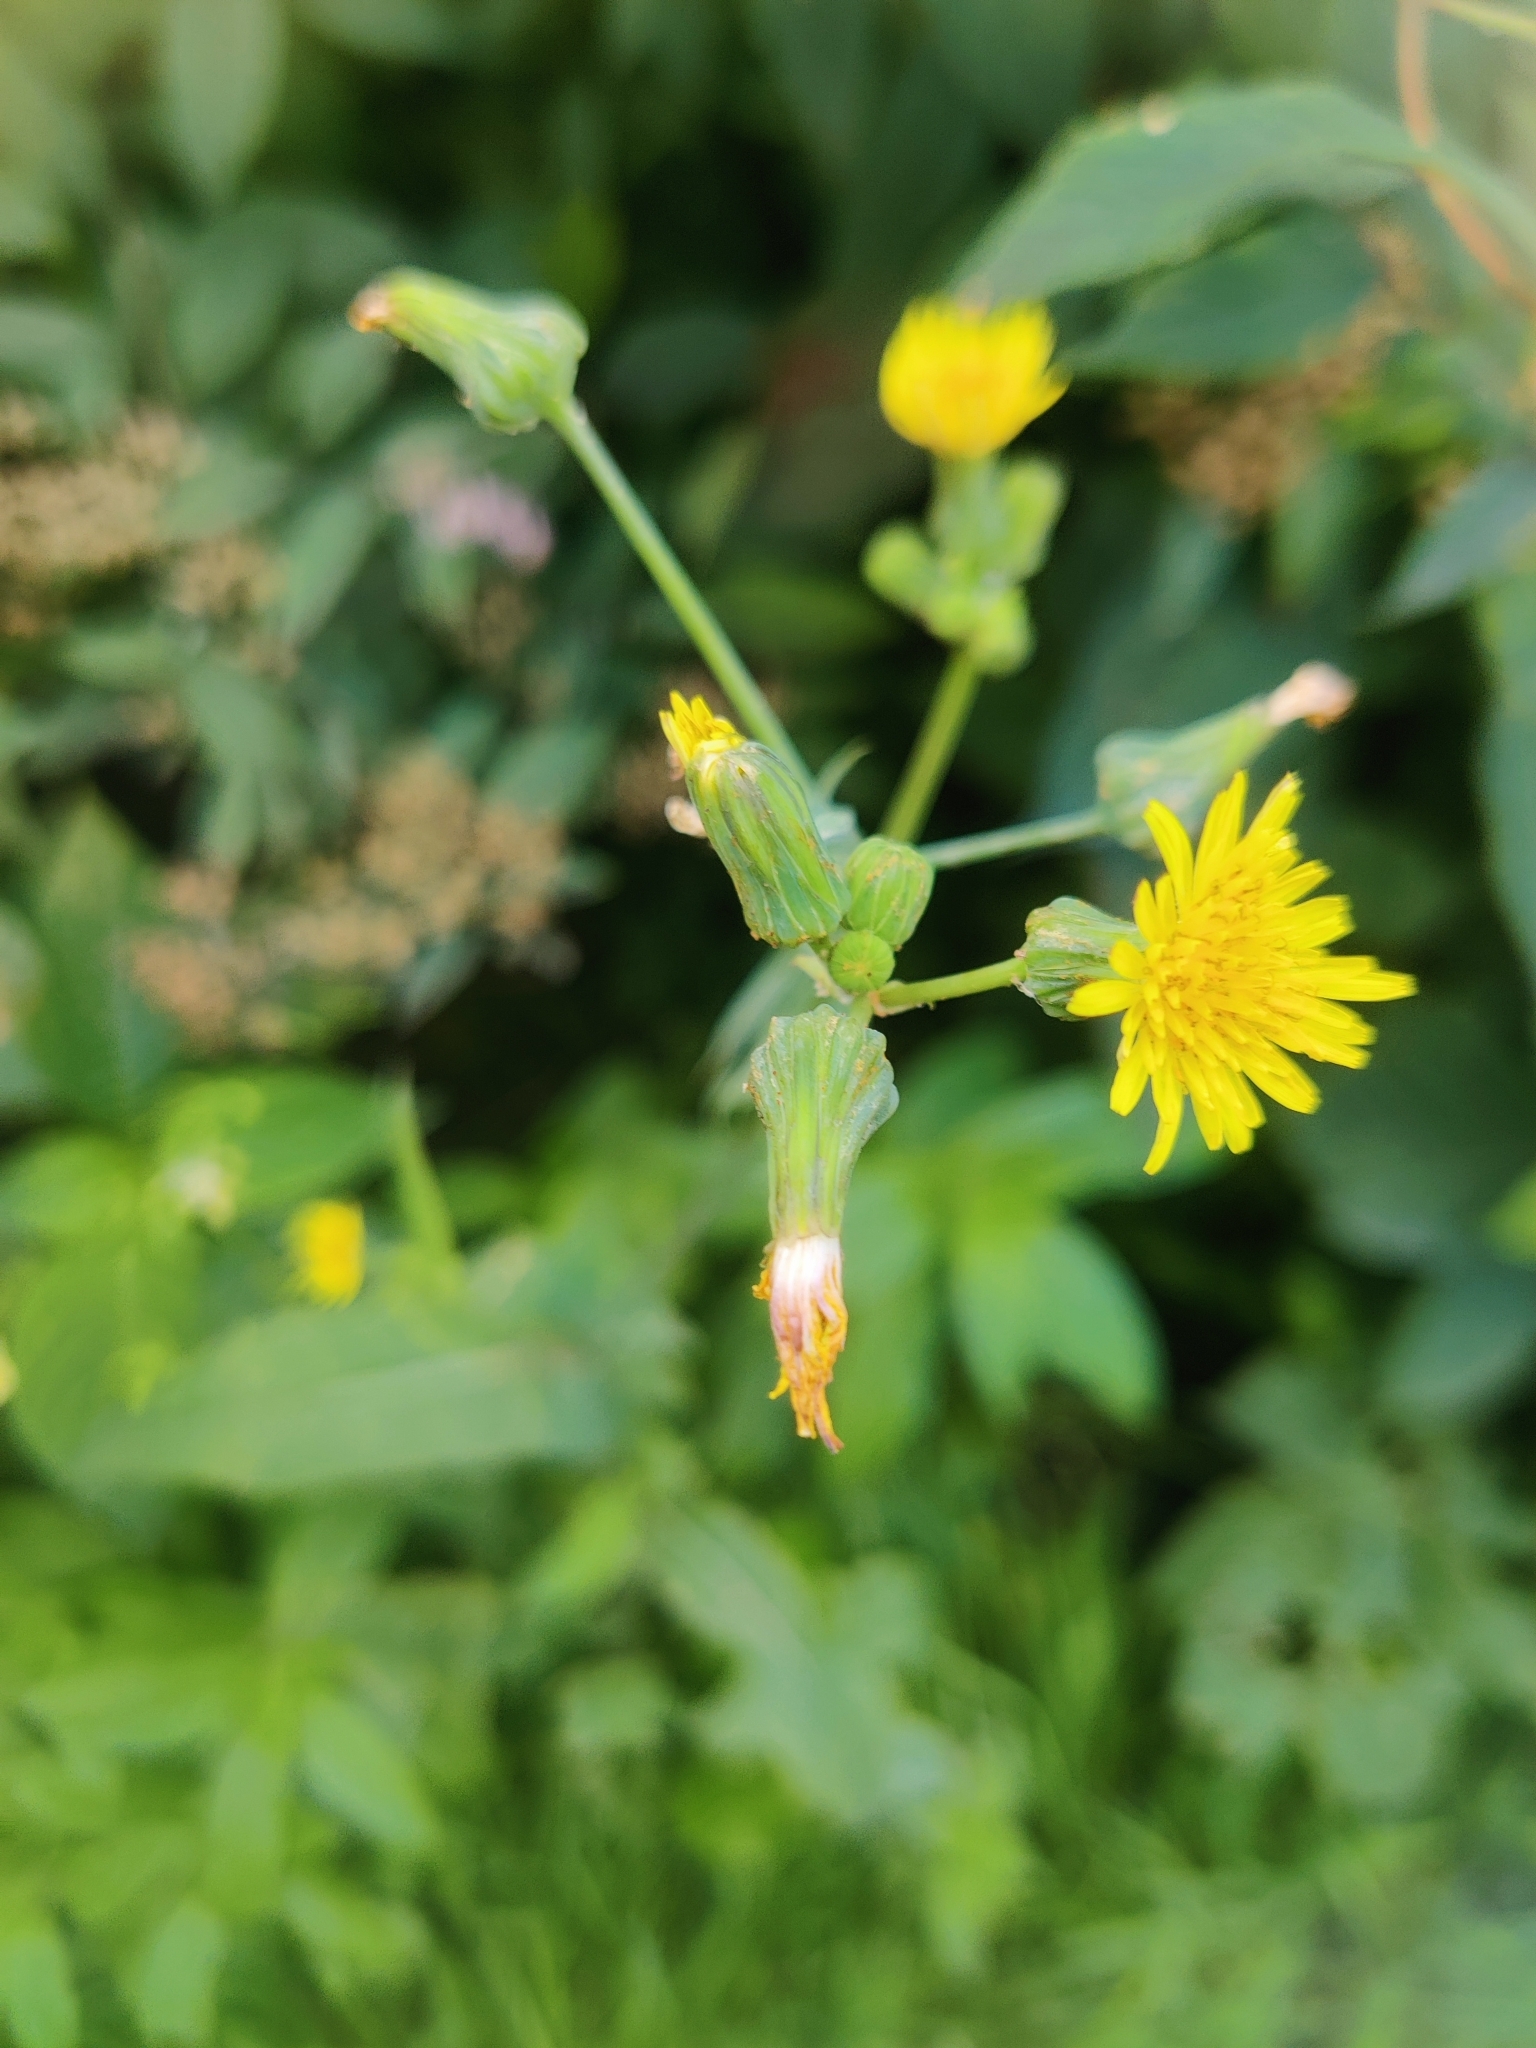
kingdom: Plantae
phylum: Tracheophyta
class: Magnoliopsida
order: Asterales
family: Asteraceae
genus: Sonchus
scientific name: Sonchus oleraceus
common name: Common sowthistle
